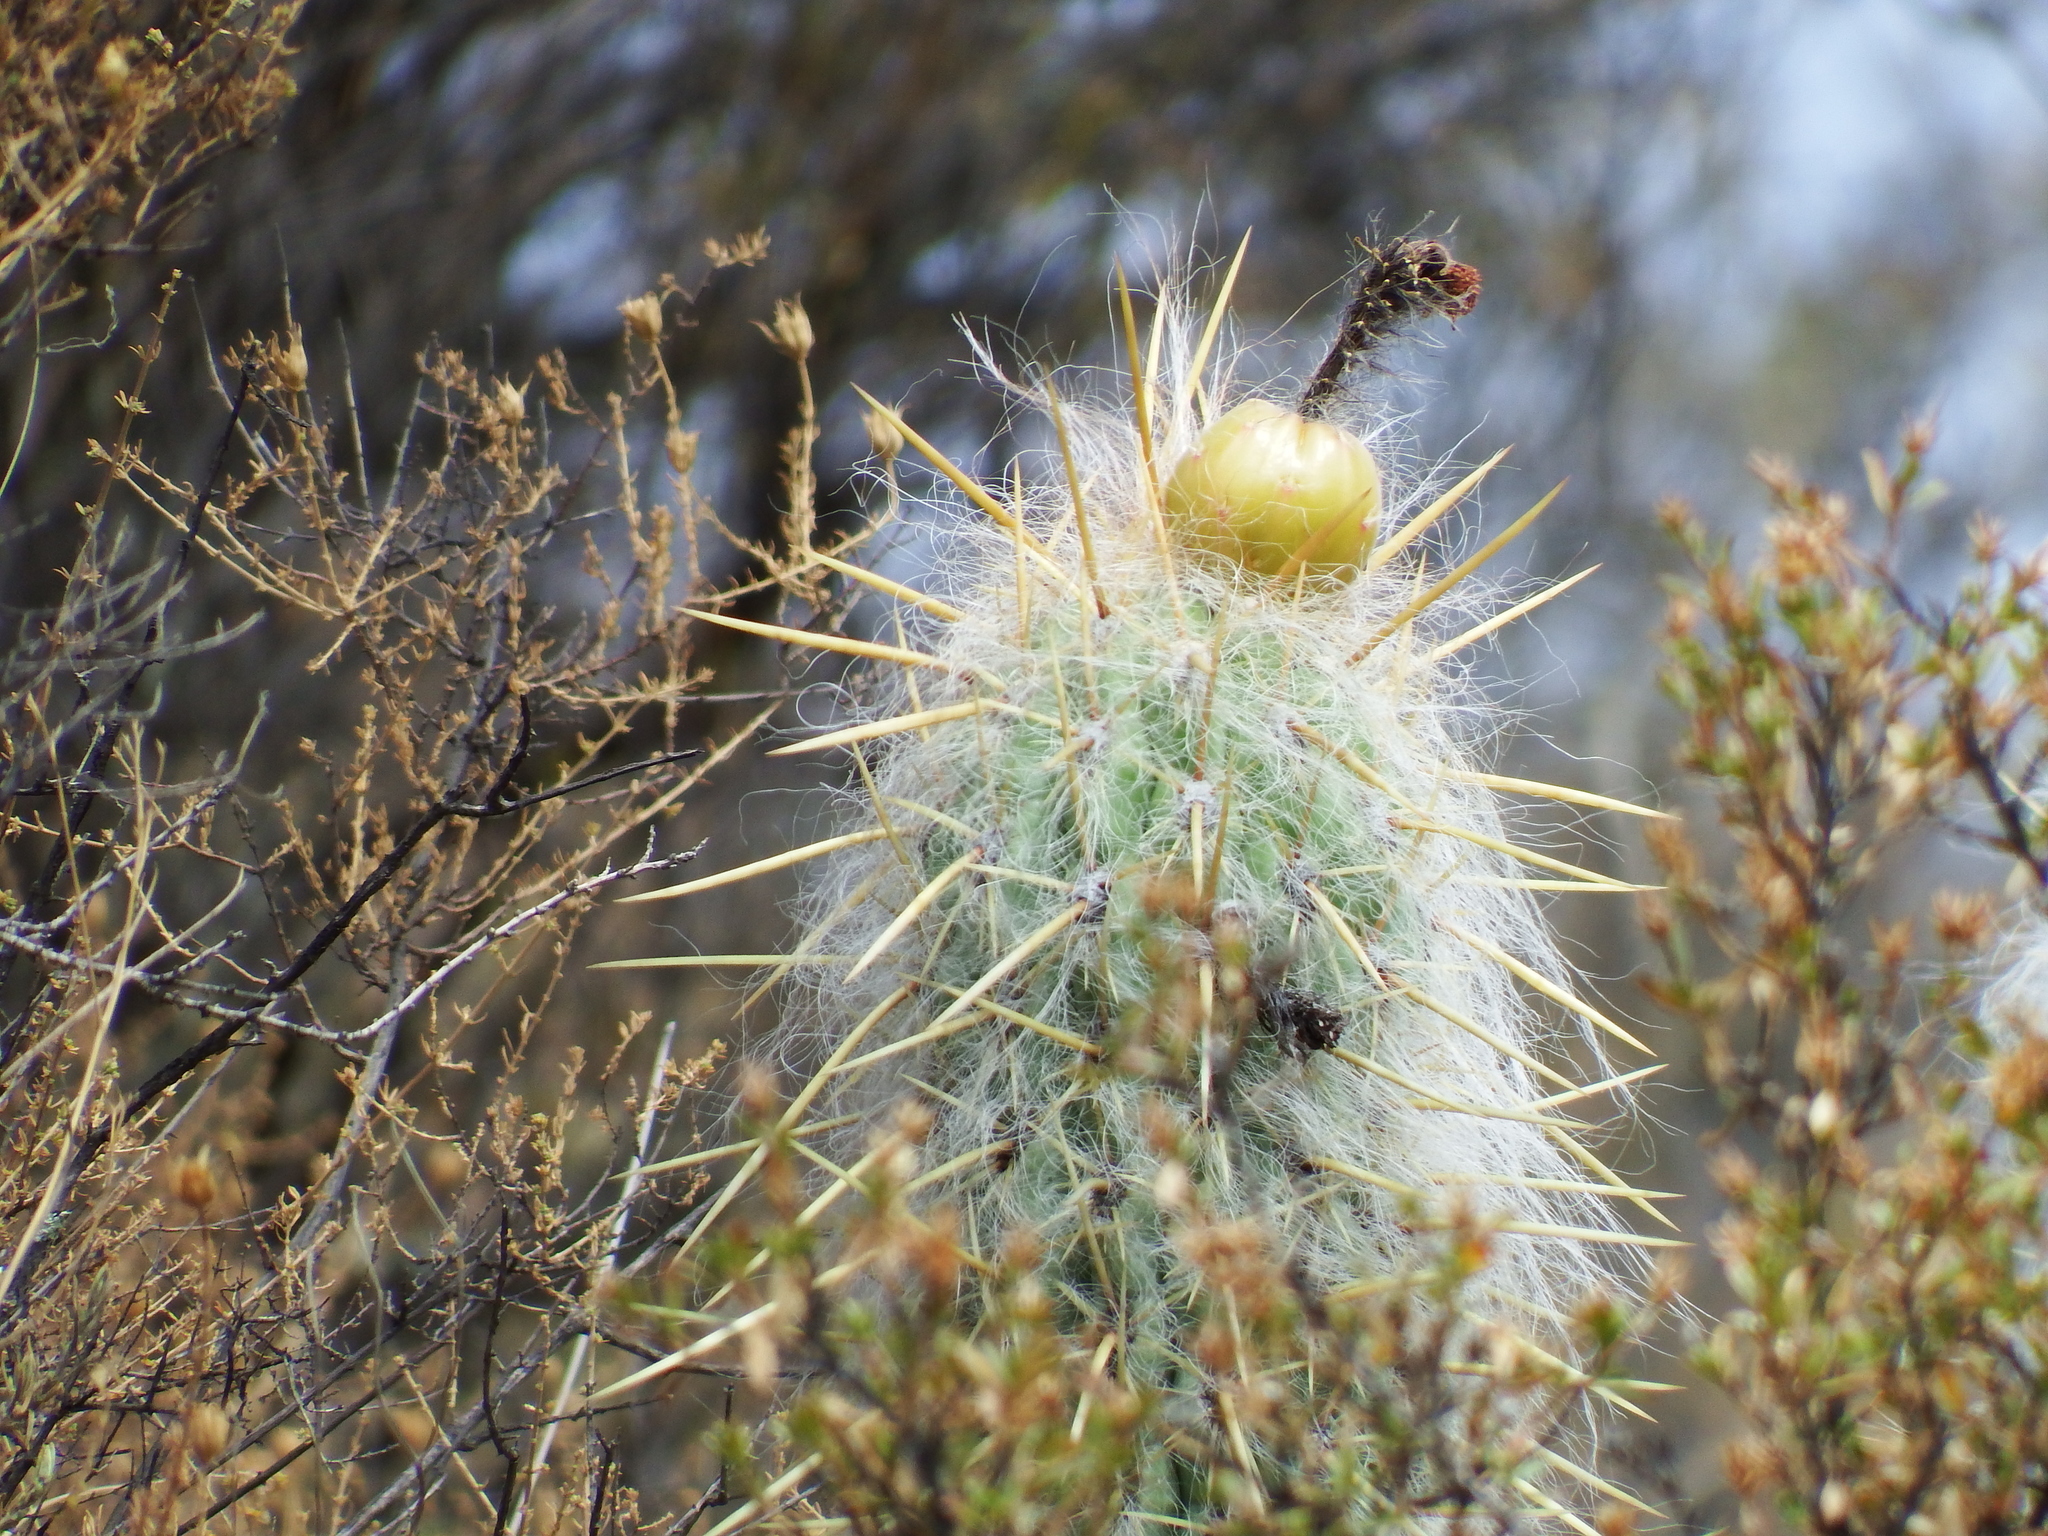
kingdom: Plantae
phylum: Tracheophyta
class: Magnoliopsida
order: Caryophyllales
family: Cactaceae
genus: Oreocereus
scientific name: Oreocereus leucotrichus
